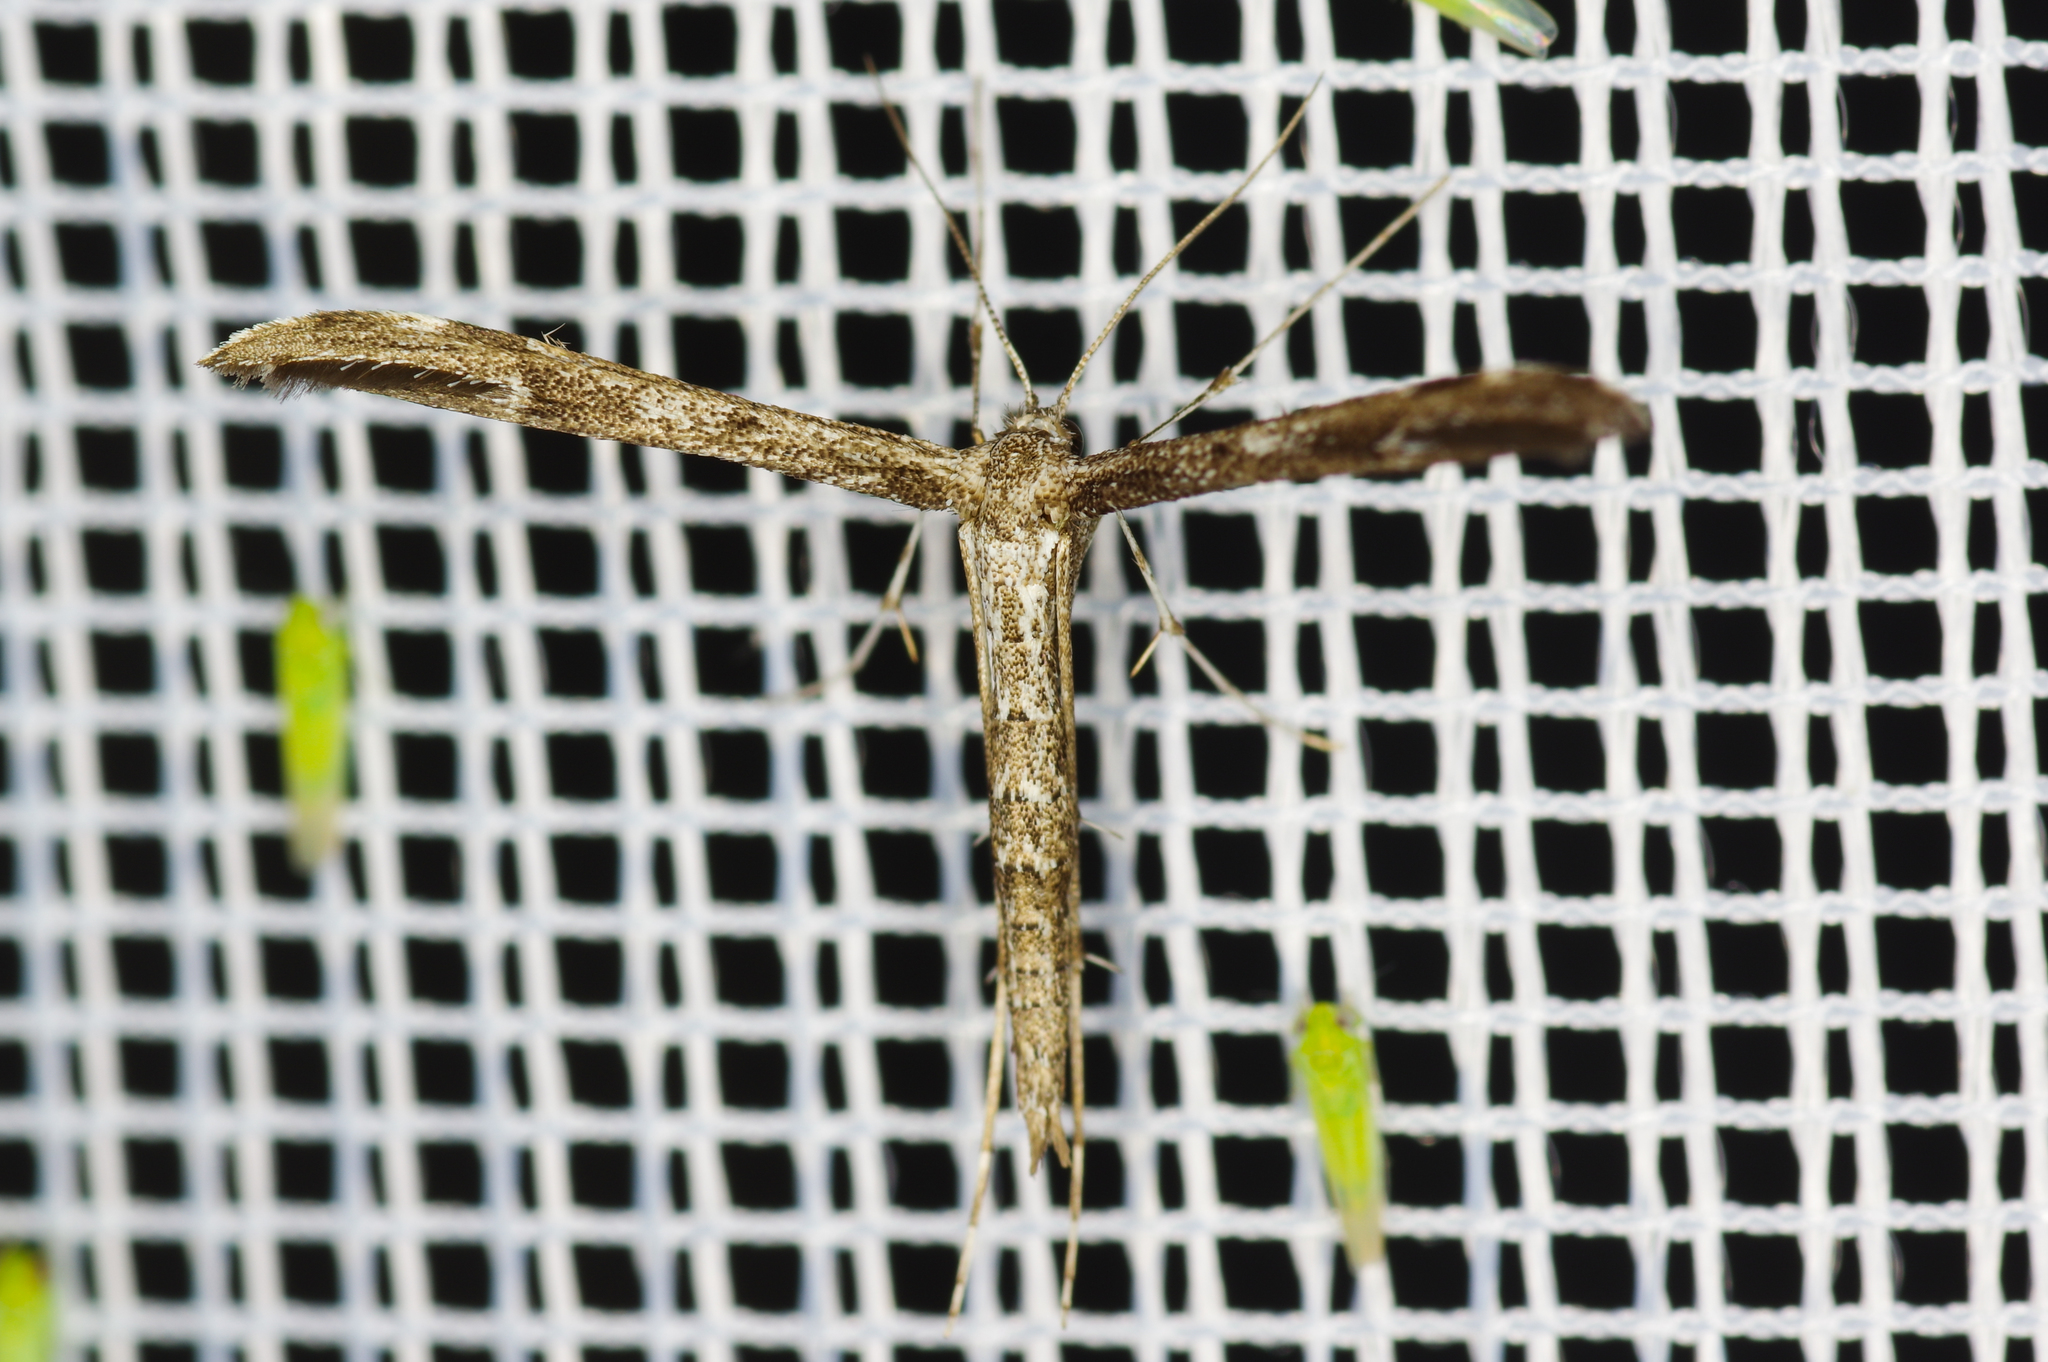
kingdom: Animalia
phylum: Arthropoda
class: Insecta
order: Lepidoptera
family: Pterophoridae
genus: Hellinsia
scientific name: Hellinsia inquinatus
